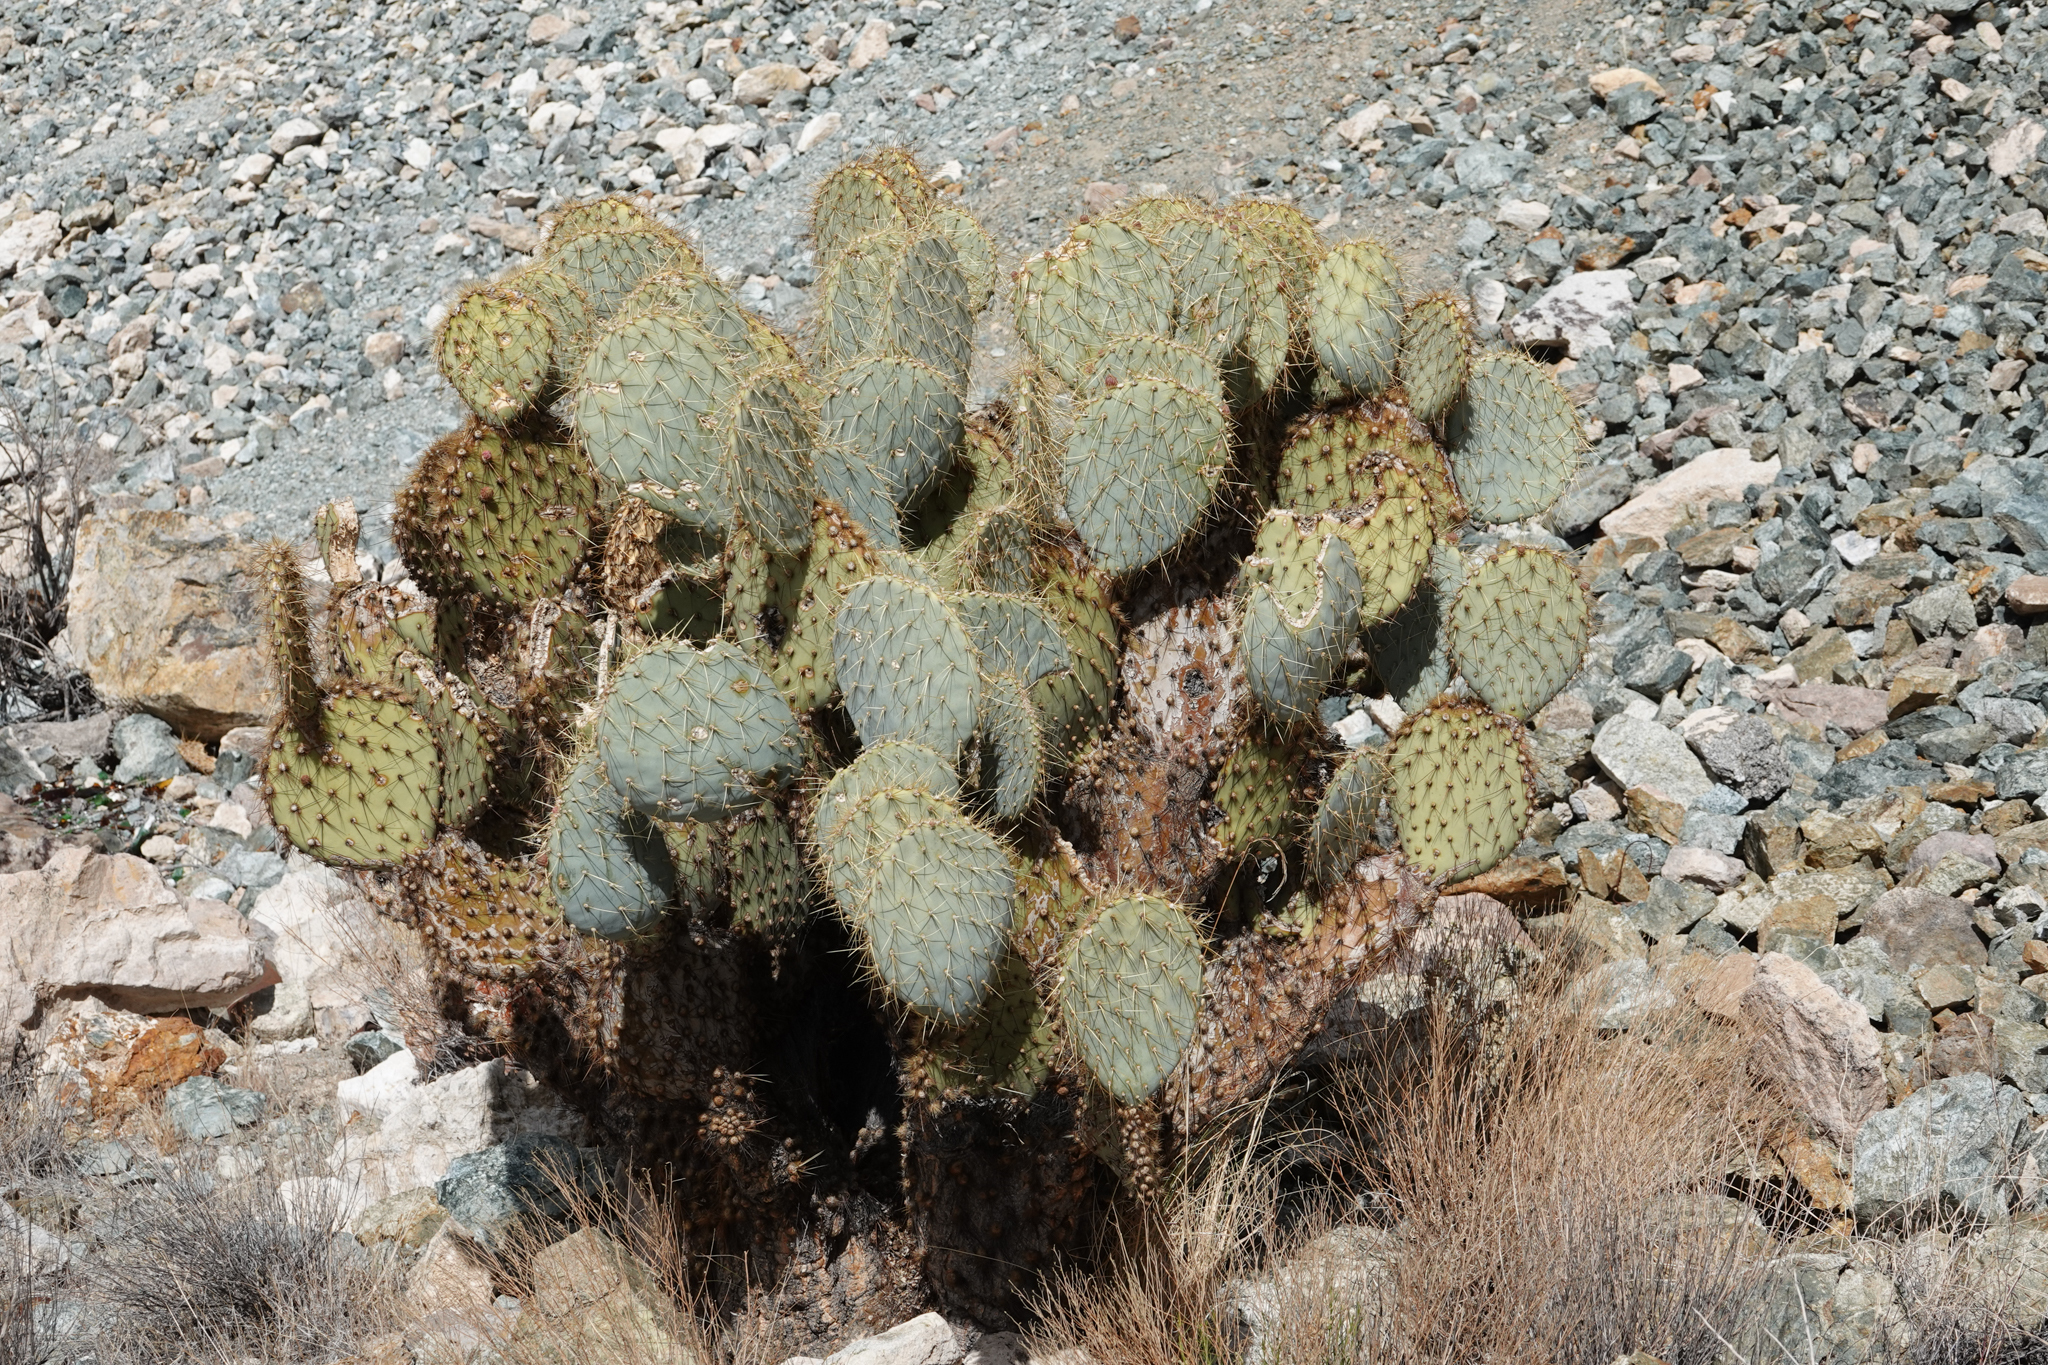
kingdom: Plantae
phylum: Tracheophyta
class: Magnoliopsida
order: Caryophyllales
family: Cactaceae
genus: Opuntia
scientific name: Opuntia chlorotica
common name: Dollar-joint prickly-pear
